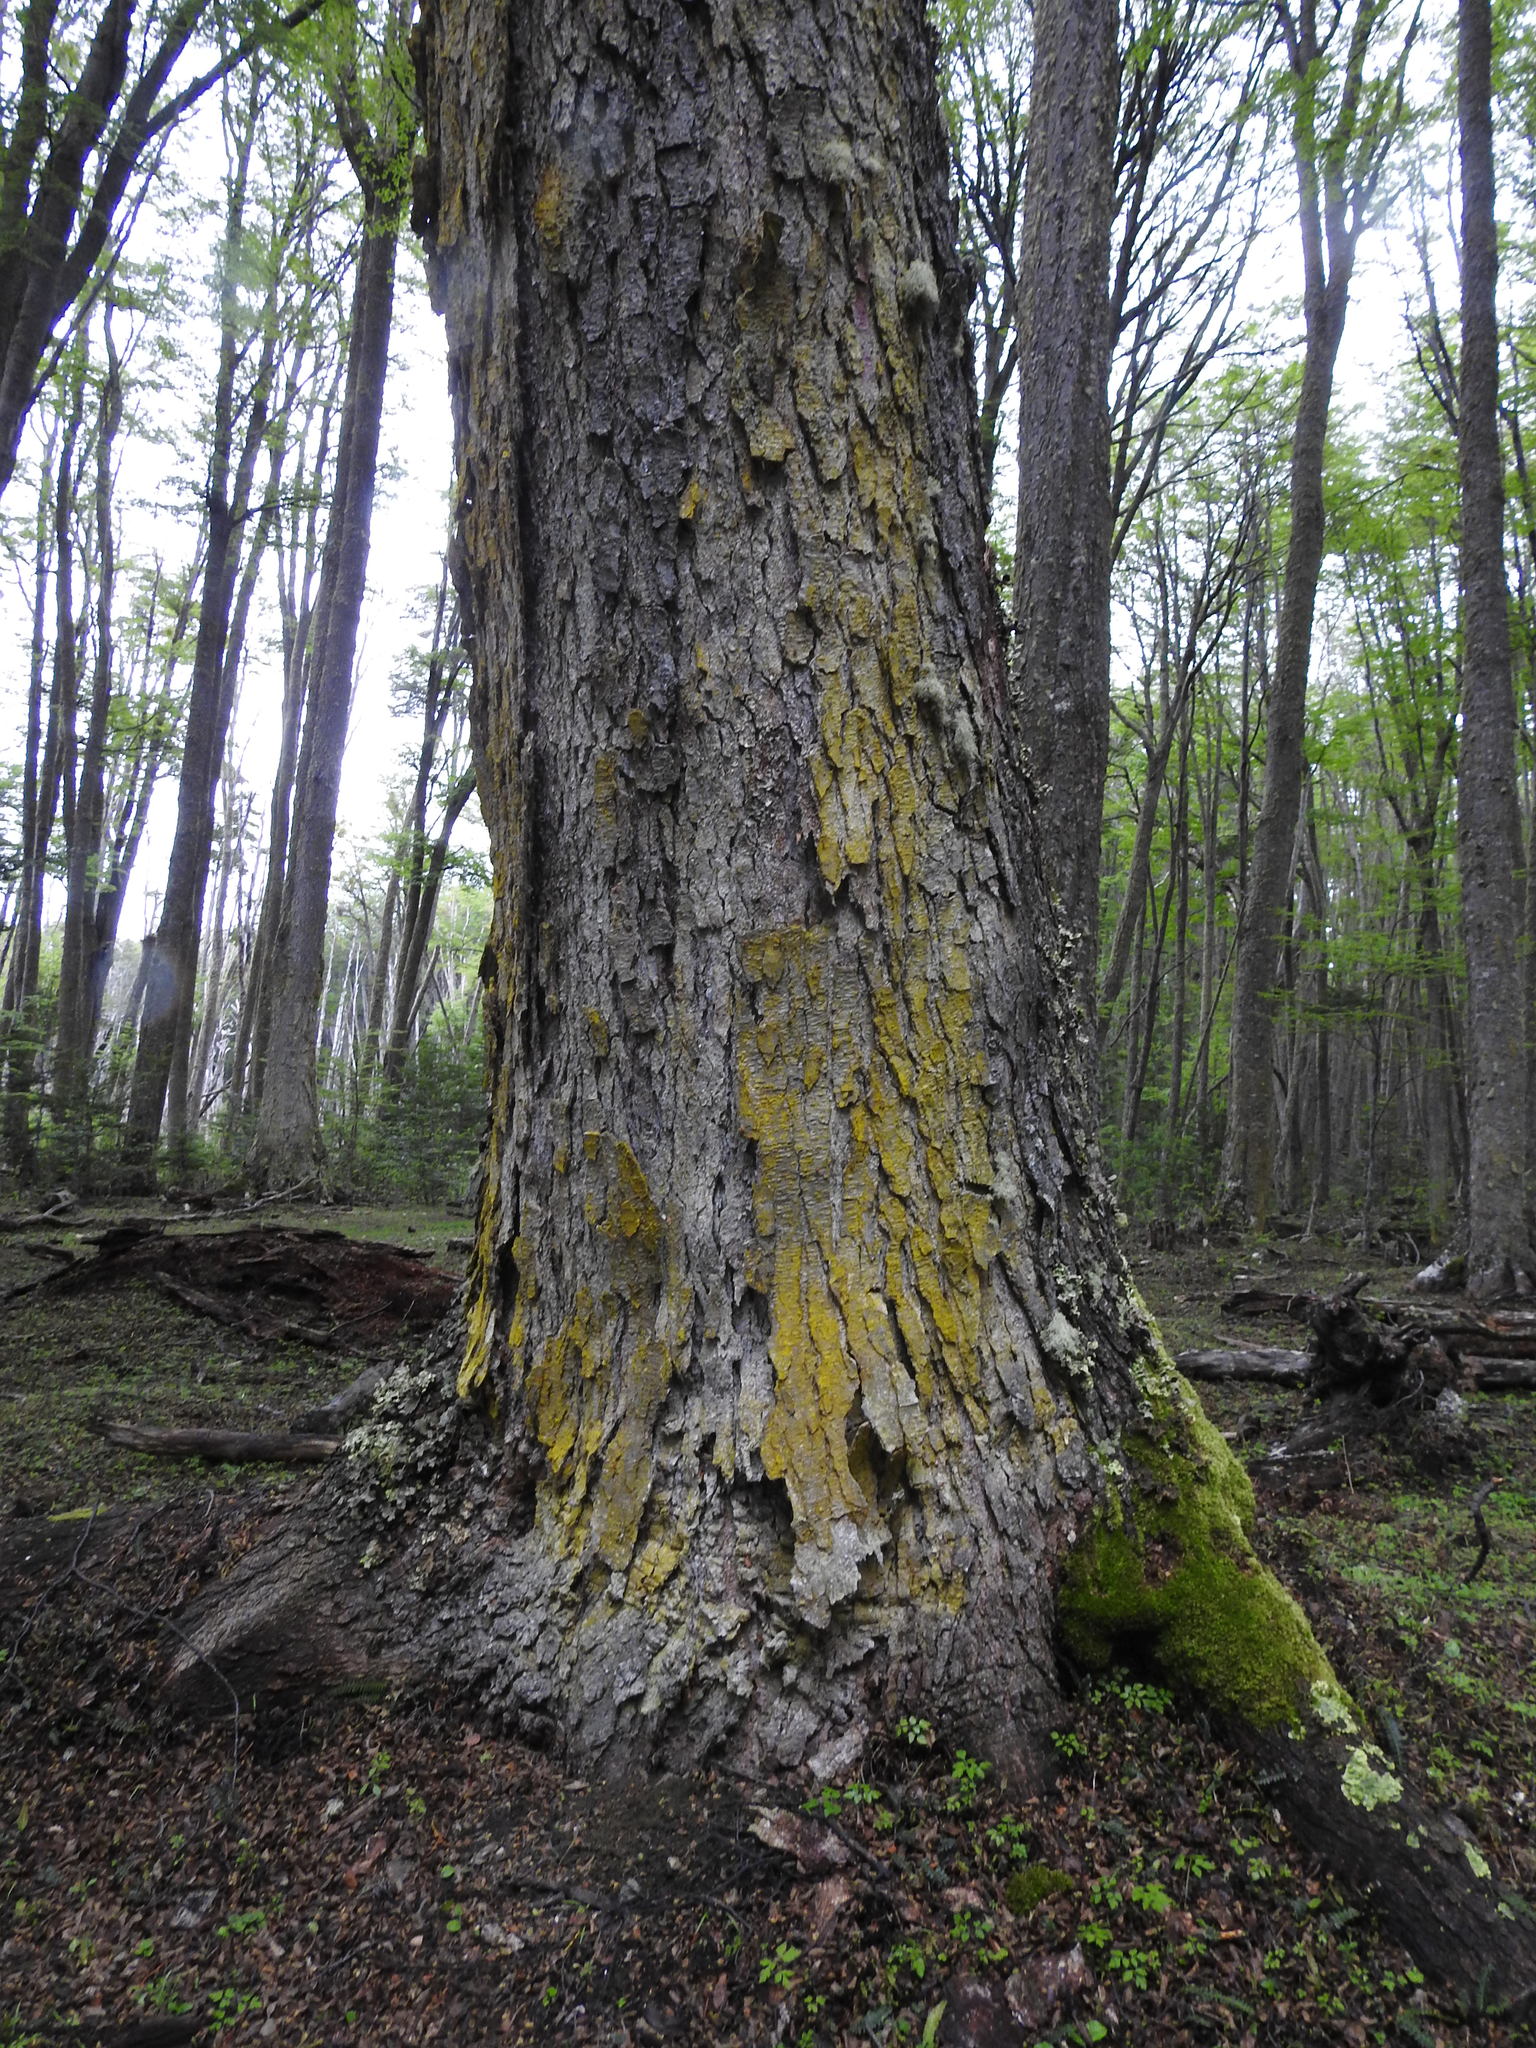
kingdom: Fungi
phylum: Ascomycota
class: Arthoniomycetes
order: Arthoniales
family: Chrysotrichaceae
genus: Chrysothrix
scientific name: Chrysothrix candelaris
